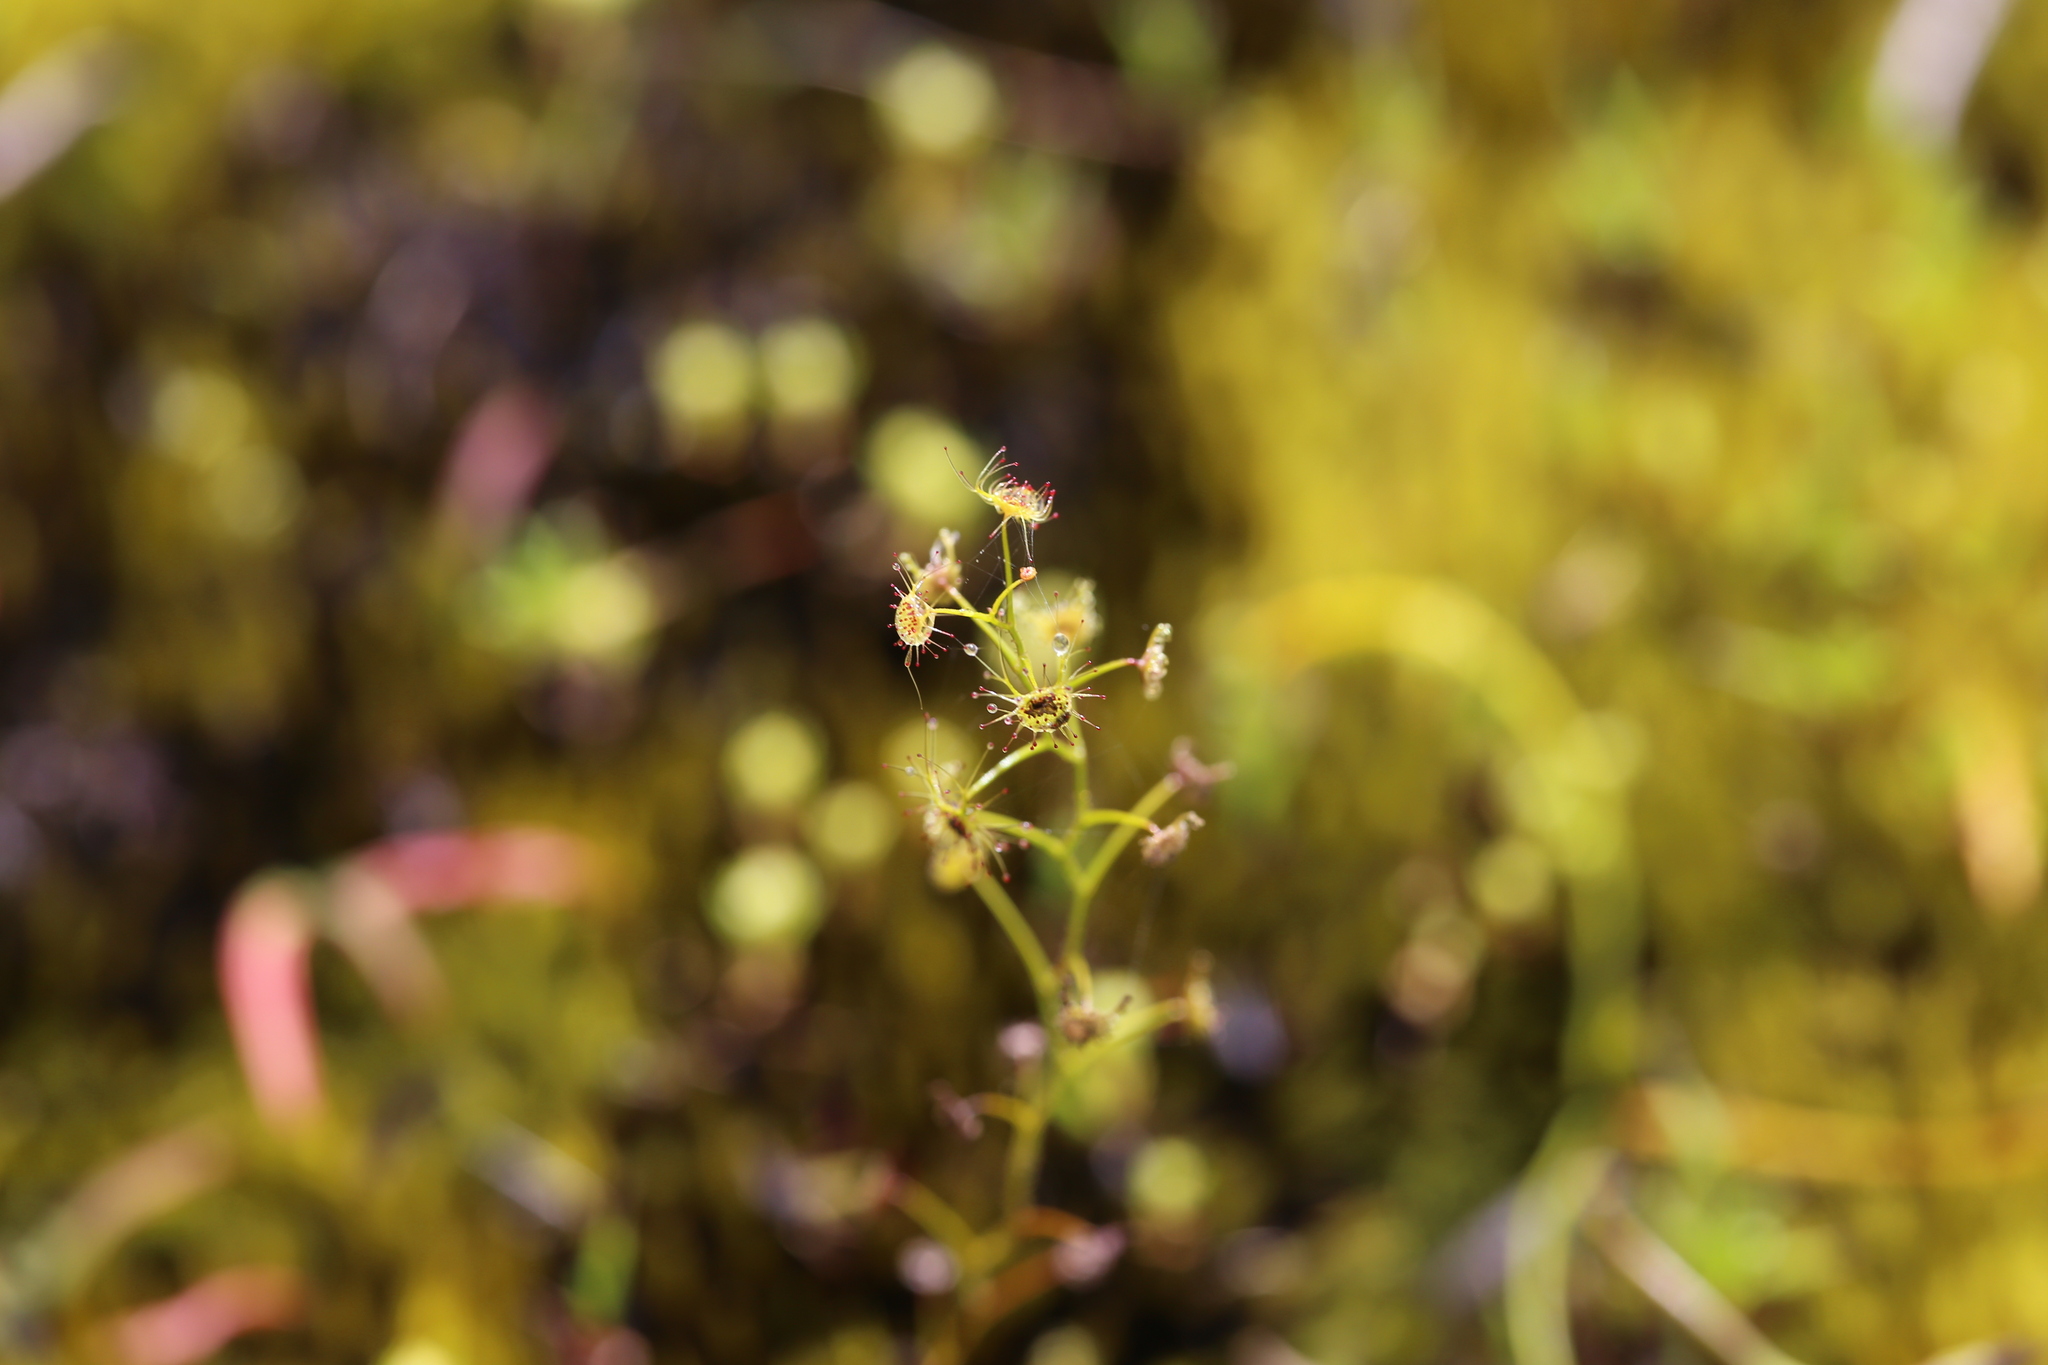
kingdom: Plantae
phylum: Tracheophyta
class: Magnoliopsida
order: Caryophyllales
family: Droseraceae
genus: Drosera
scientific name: Drosera modesta
